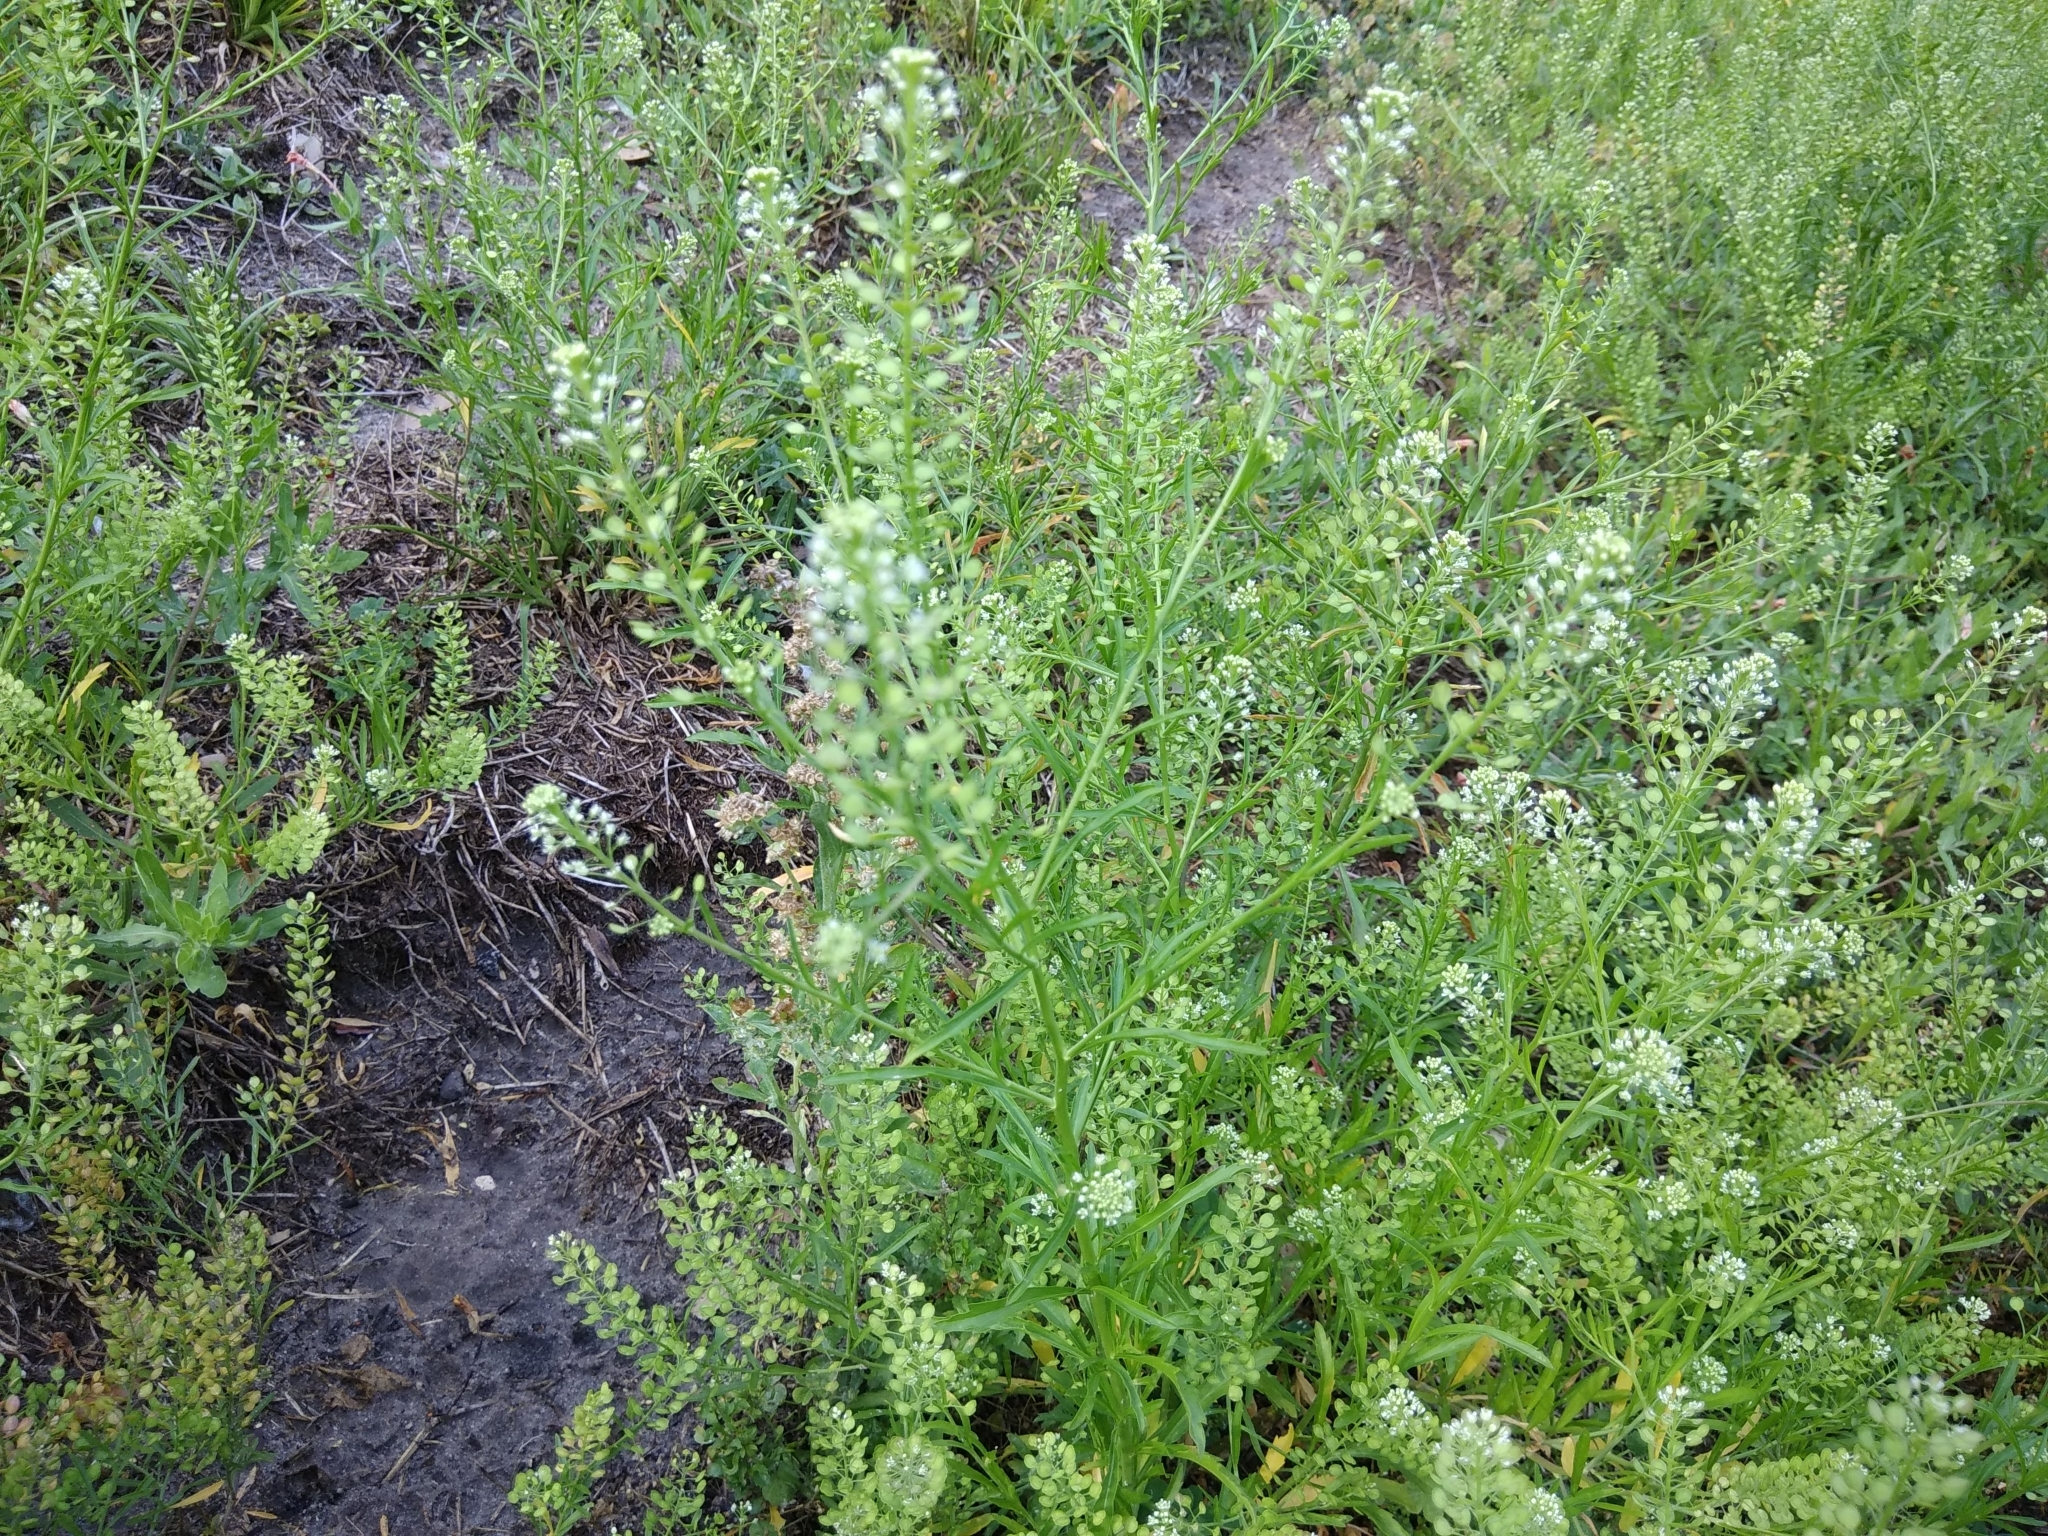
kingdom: Plantae
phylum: Tracheophyta
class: Magnoliopsida
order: Brassicales
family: Brassicaceae
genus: Lepidium
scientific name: Lepidium virginicum
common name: Least pepperwort
